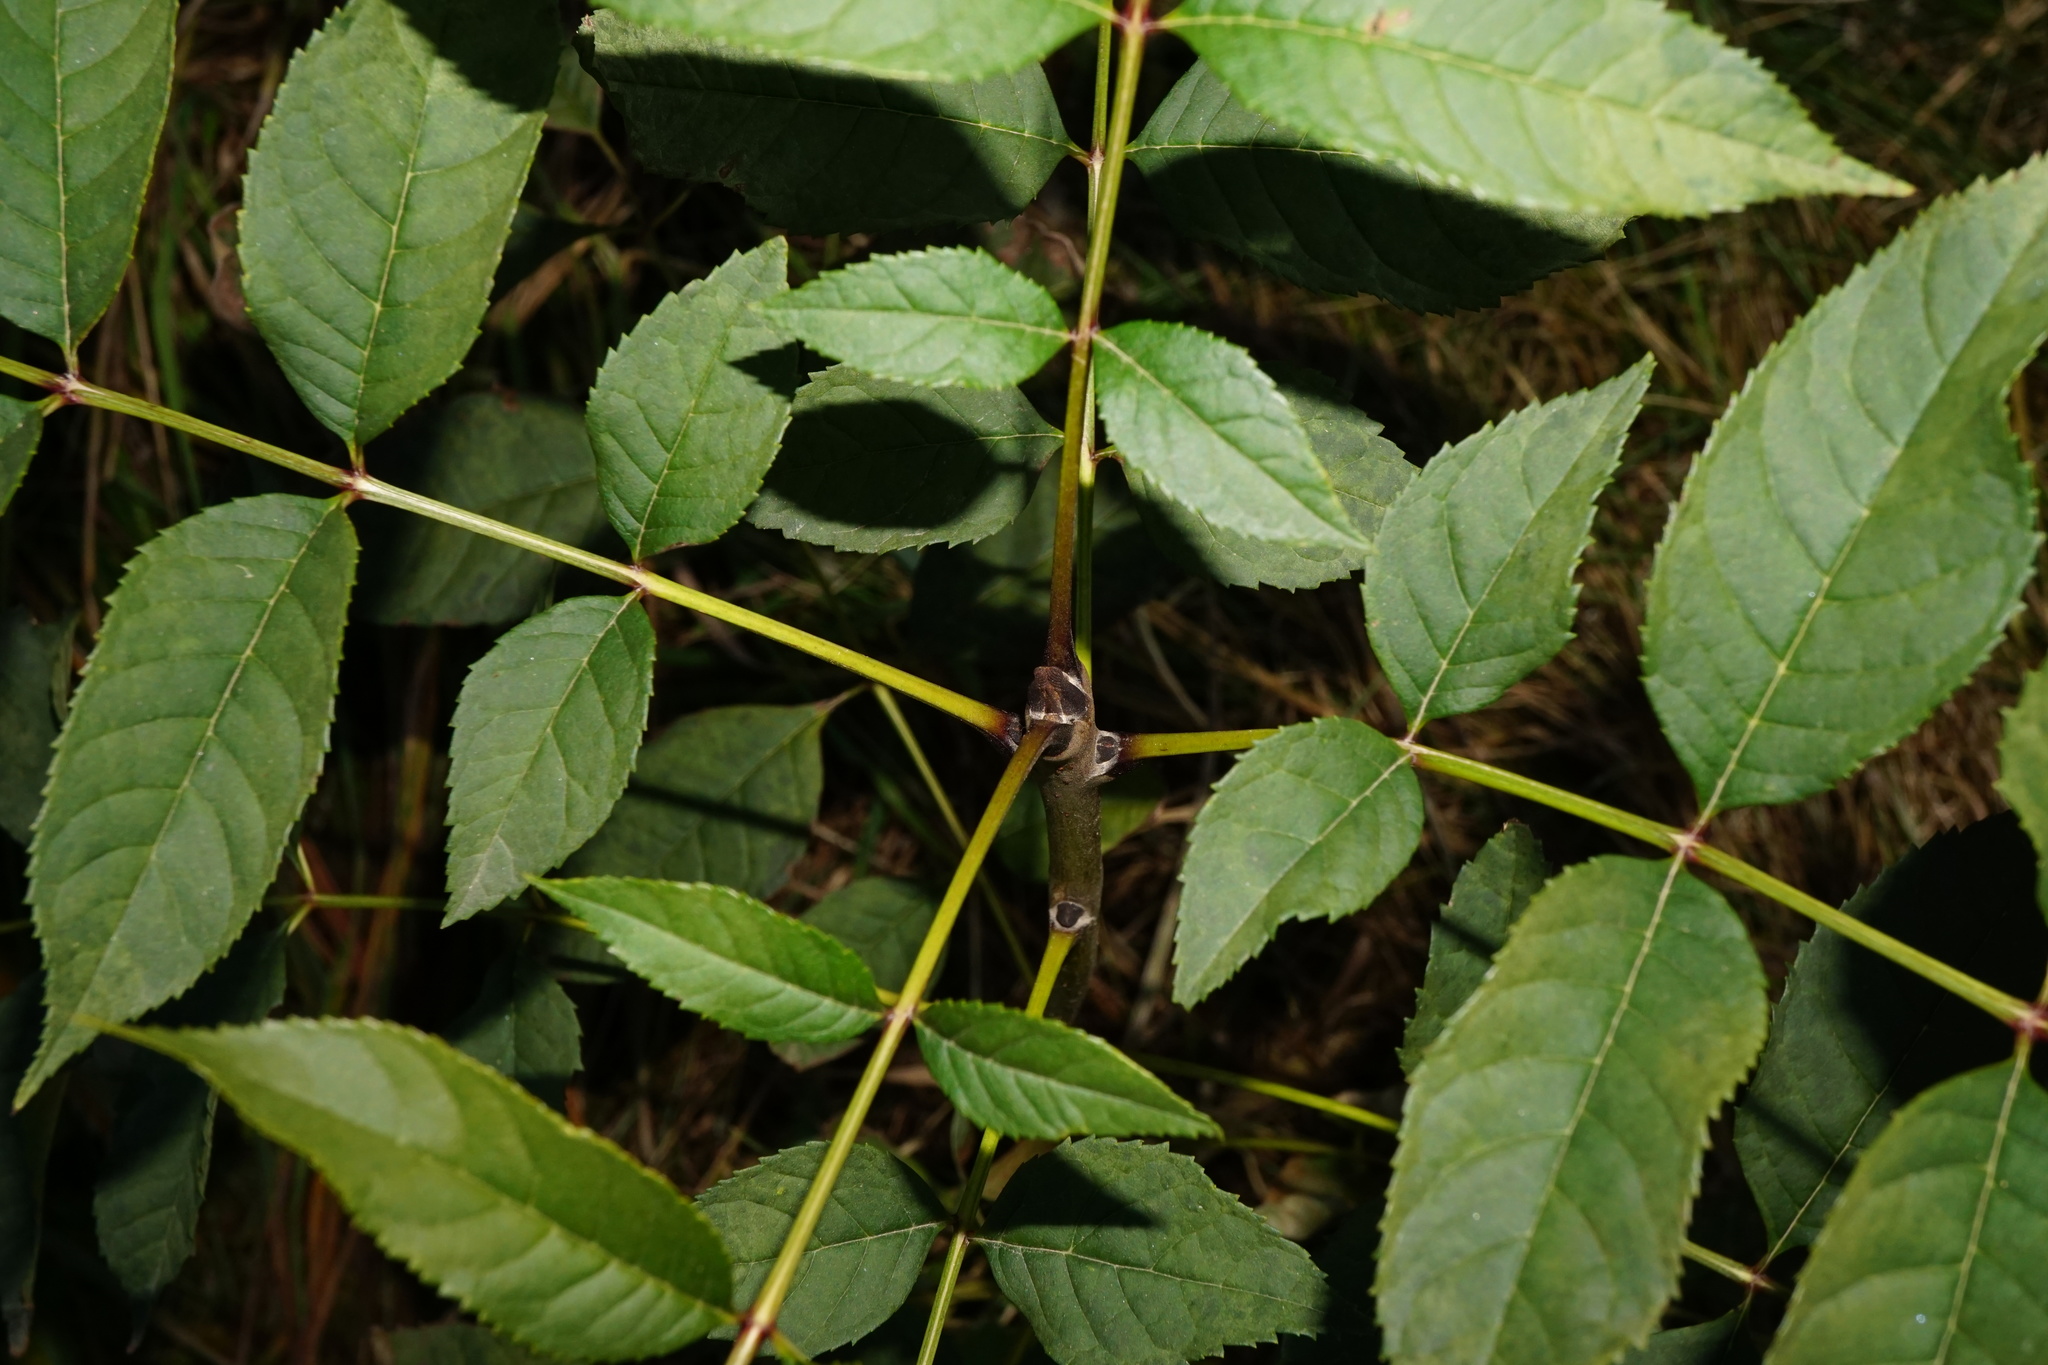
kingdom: Plantae
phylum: Tracheophyta
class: Magnoliopsida
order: Lamiales
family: Oleaceae
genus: Fraxinus
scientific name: Fraxinus excelsior
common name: European ash
